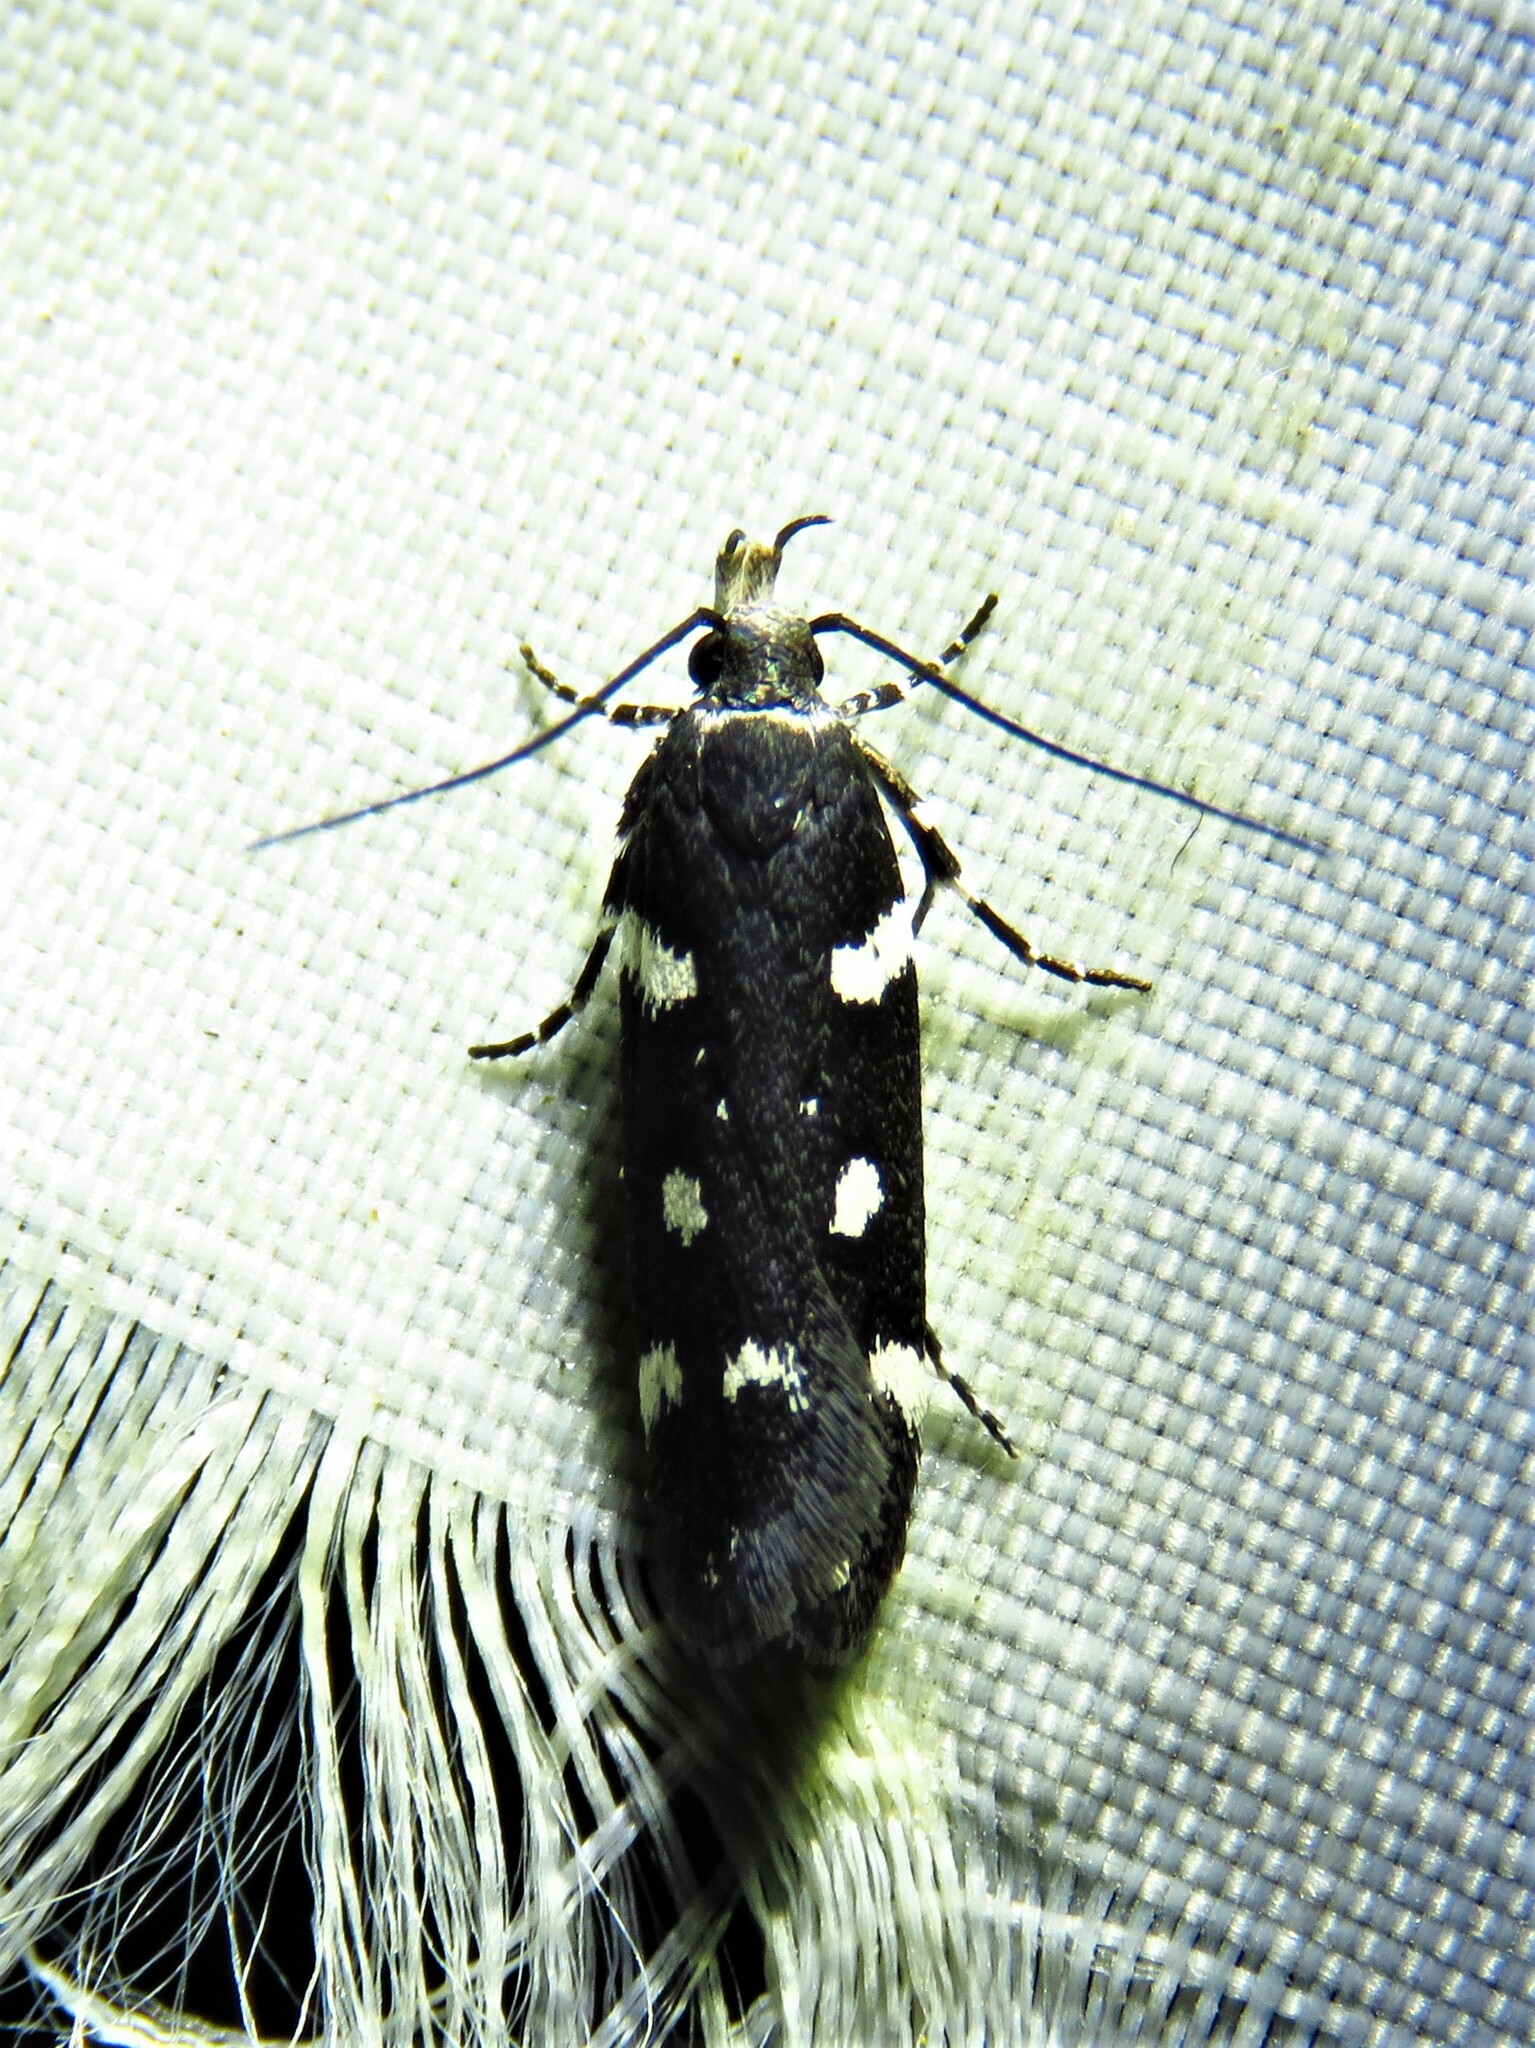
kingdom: Animalia
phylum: Arthropoda
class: Insecta
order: Lepidoptera
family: Gelechiidae
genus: Aroga
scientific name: Aroga compositella
